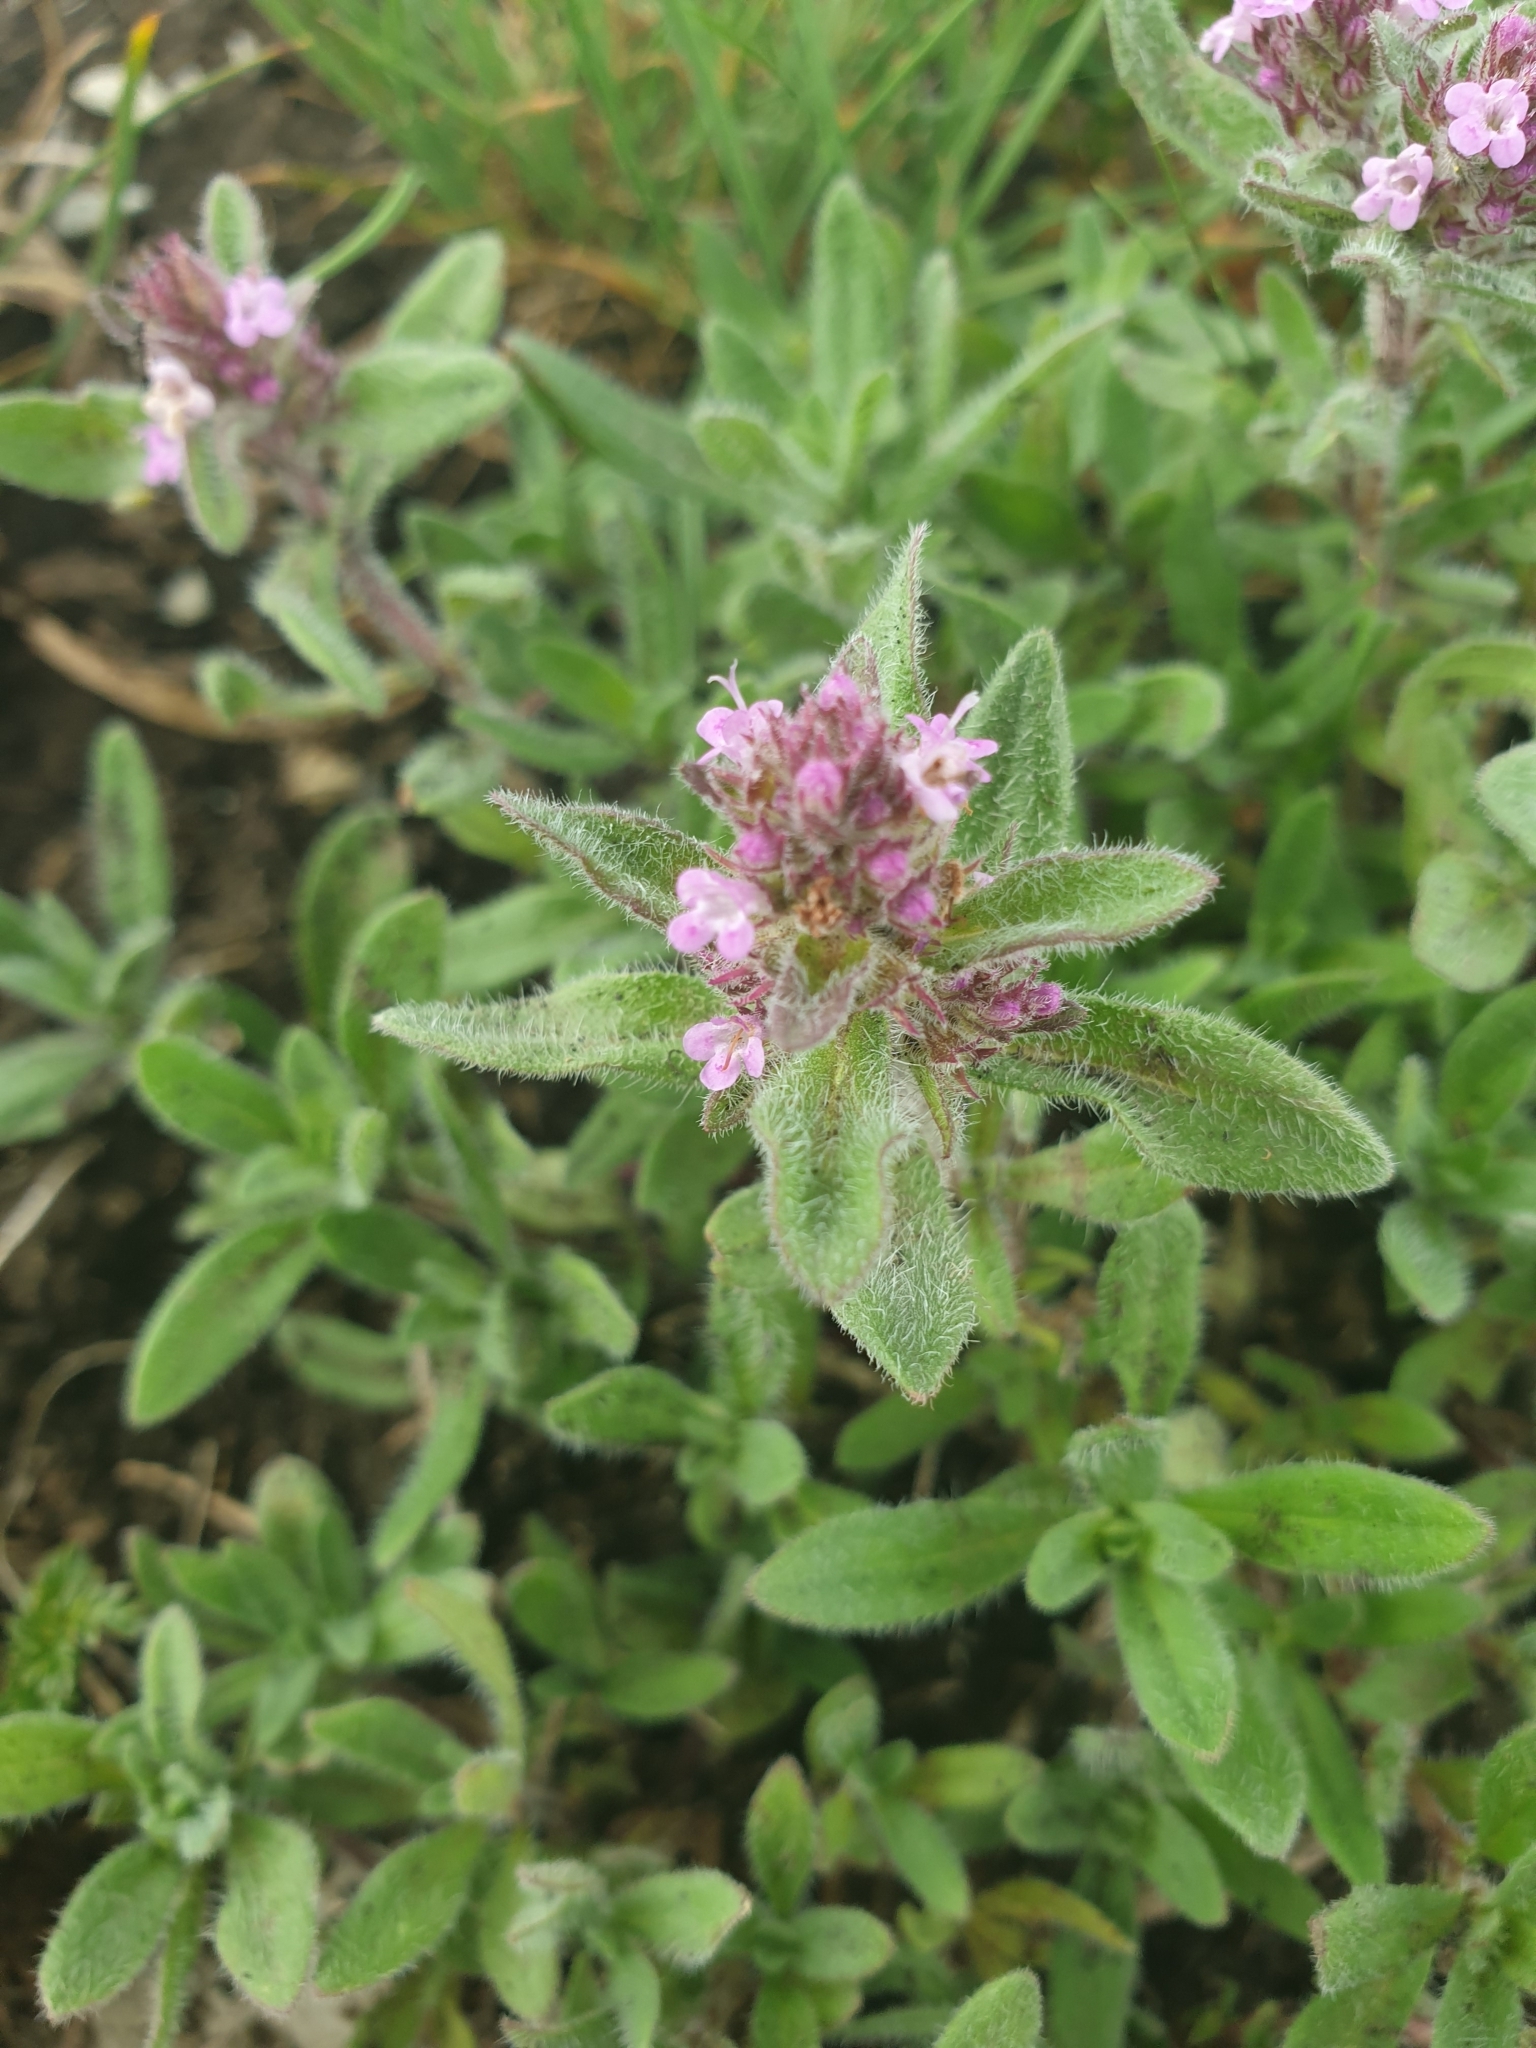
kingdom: Plantae
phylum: Tracheophyta
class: Magnoliopsida
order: Lamiales
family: Lamiaceae
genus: Thymus
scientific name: Thymus markhotensis
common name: Markhotian thyme
